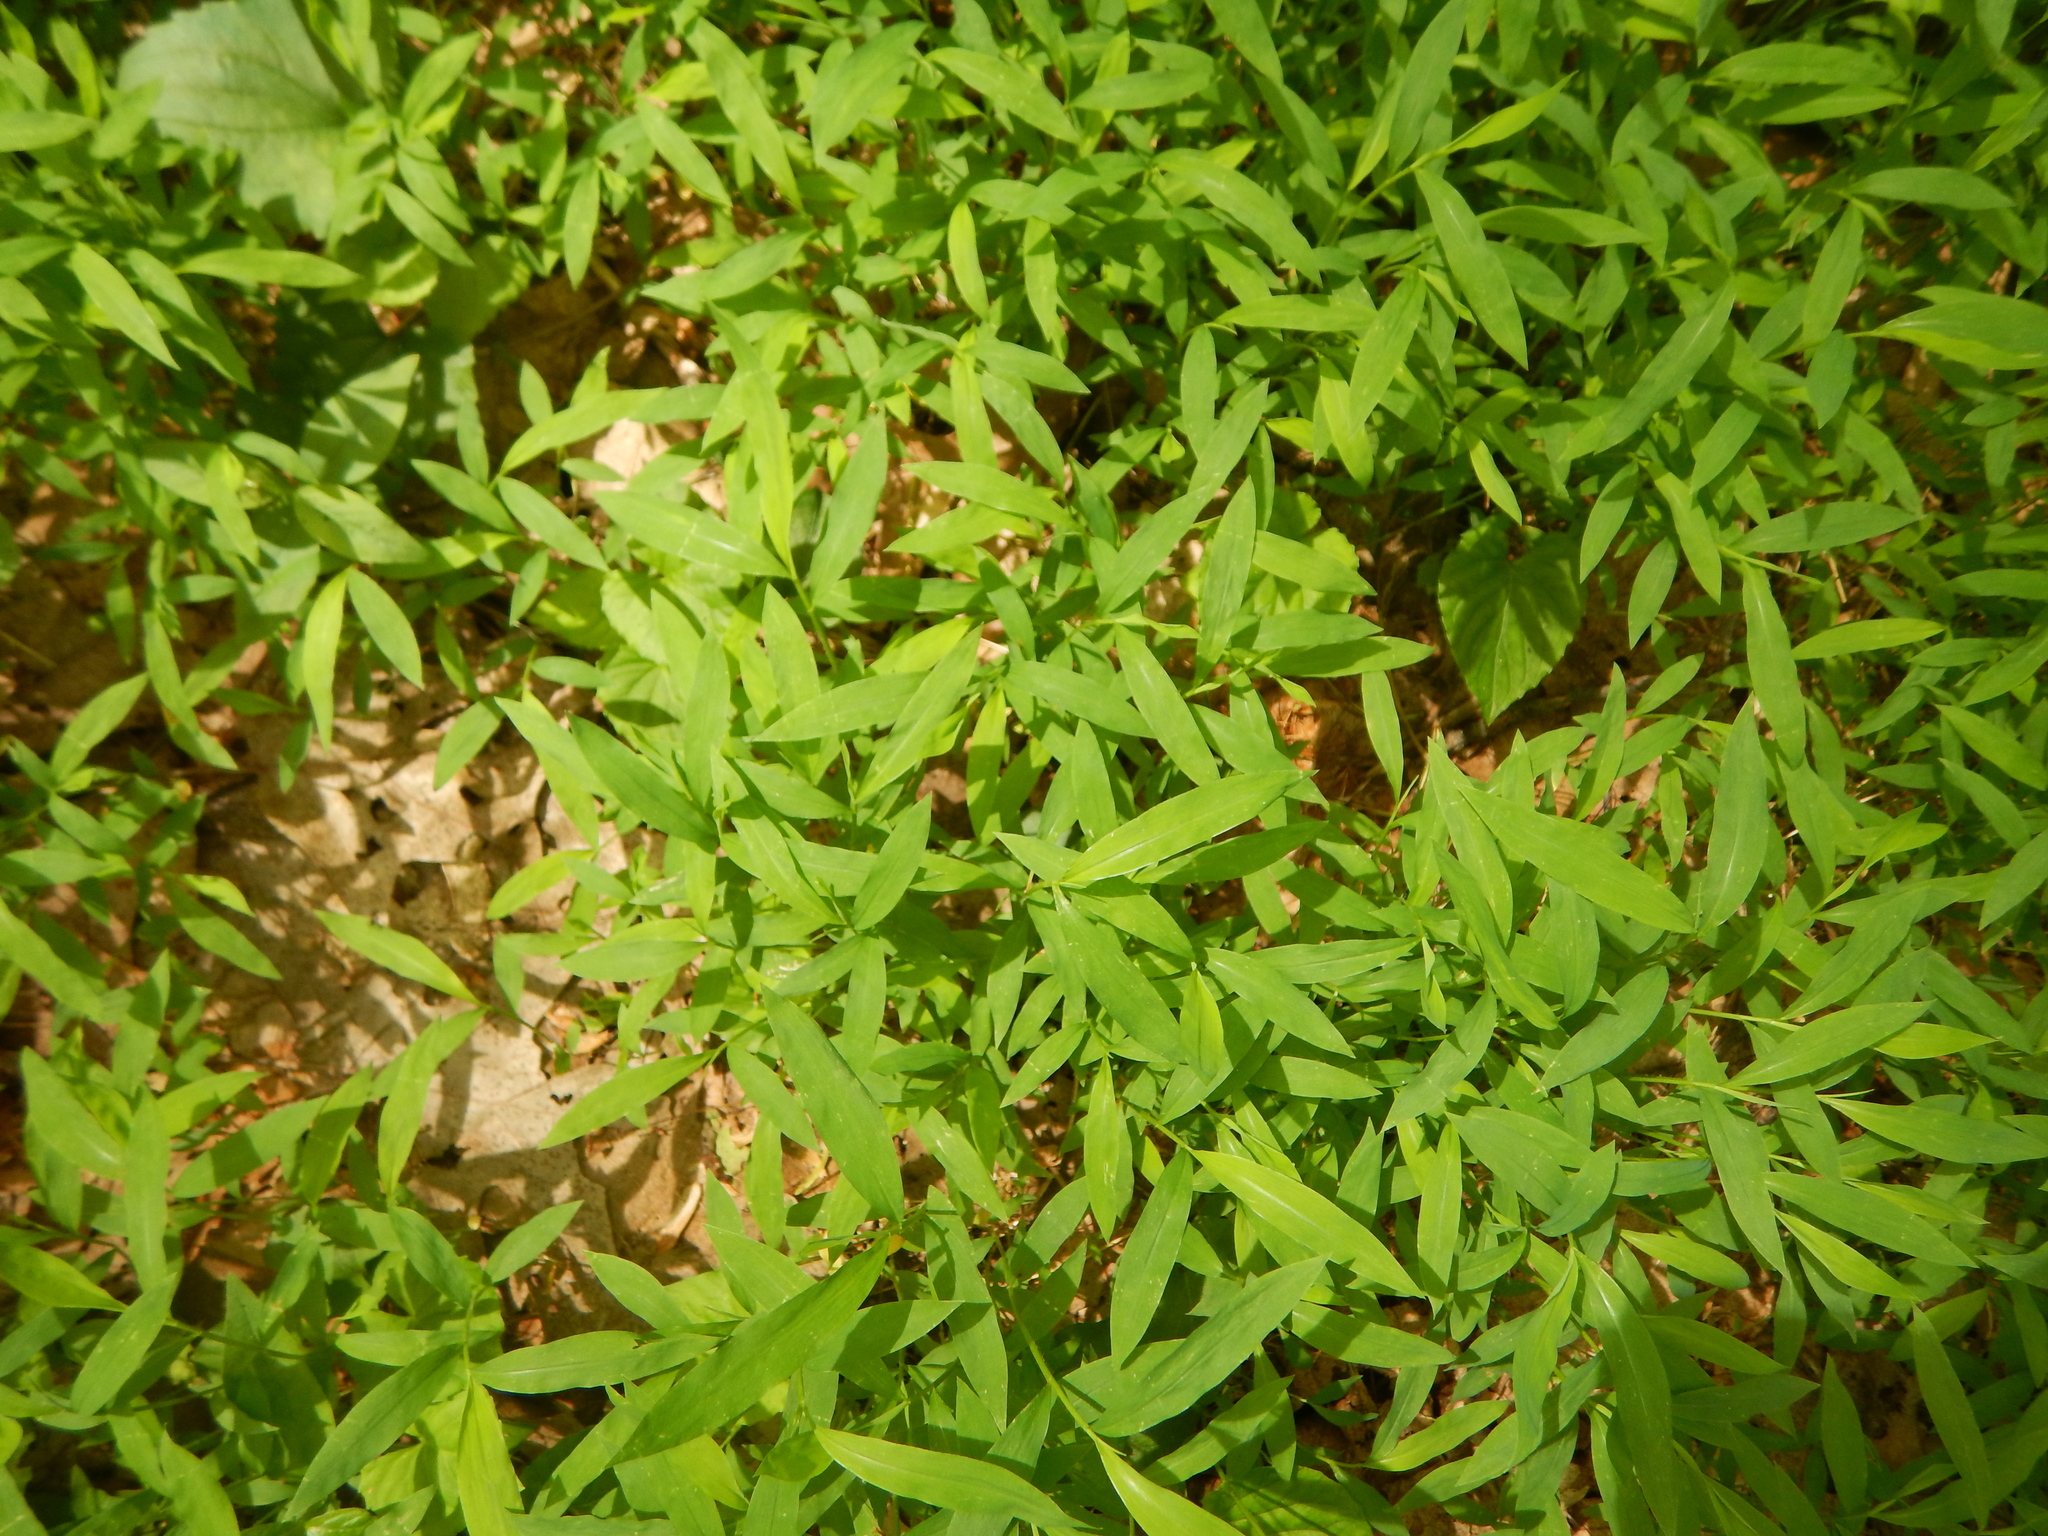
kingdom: Plantae
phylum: Tracheophyta
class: Liliopsida
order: Poales
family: Poaceae
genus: Microstegium
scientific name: Microstegium vimineum
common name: Japanese stiltgrass
